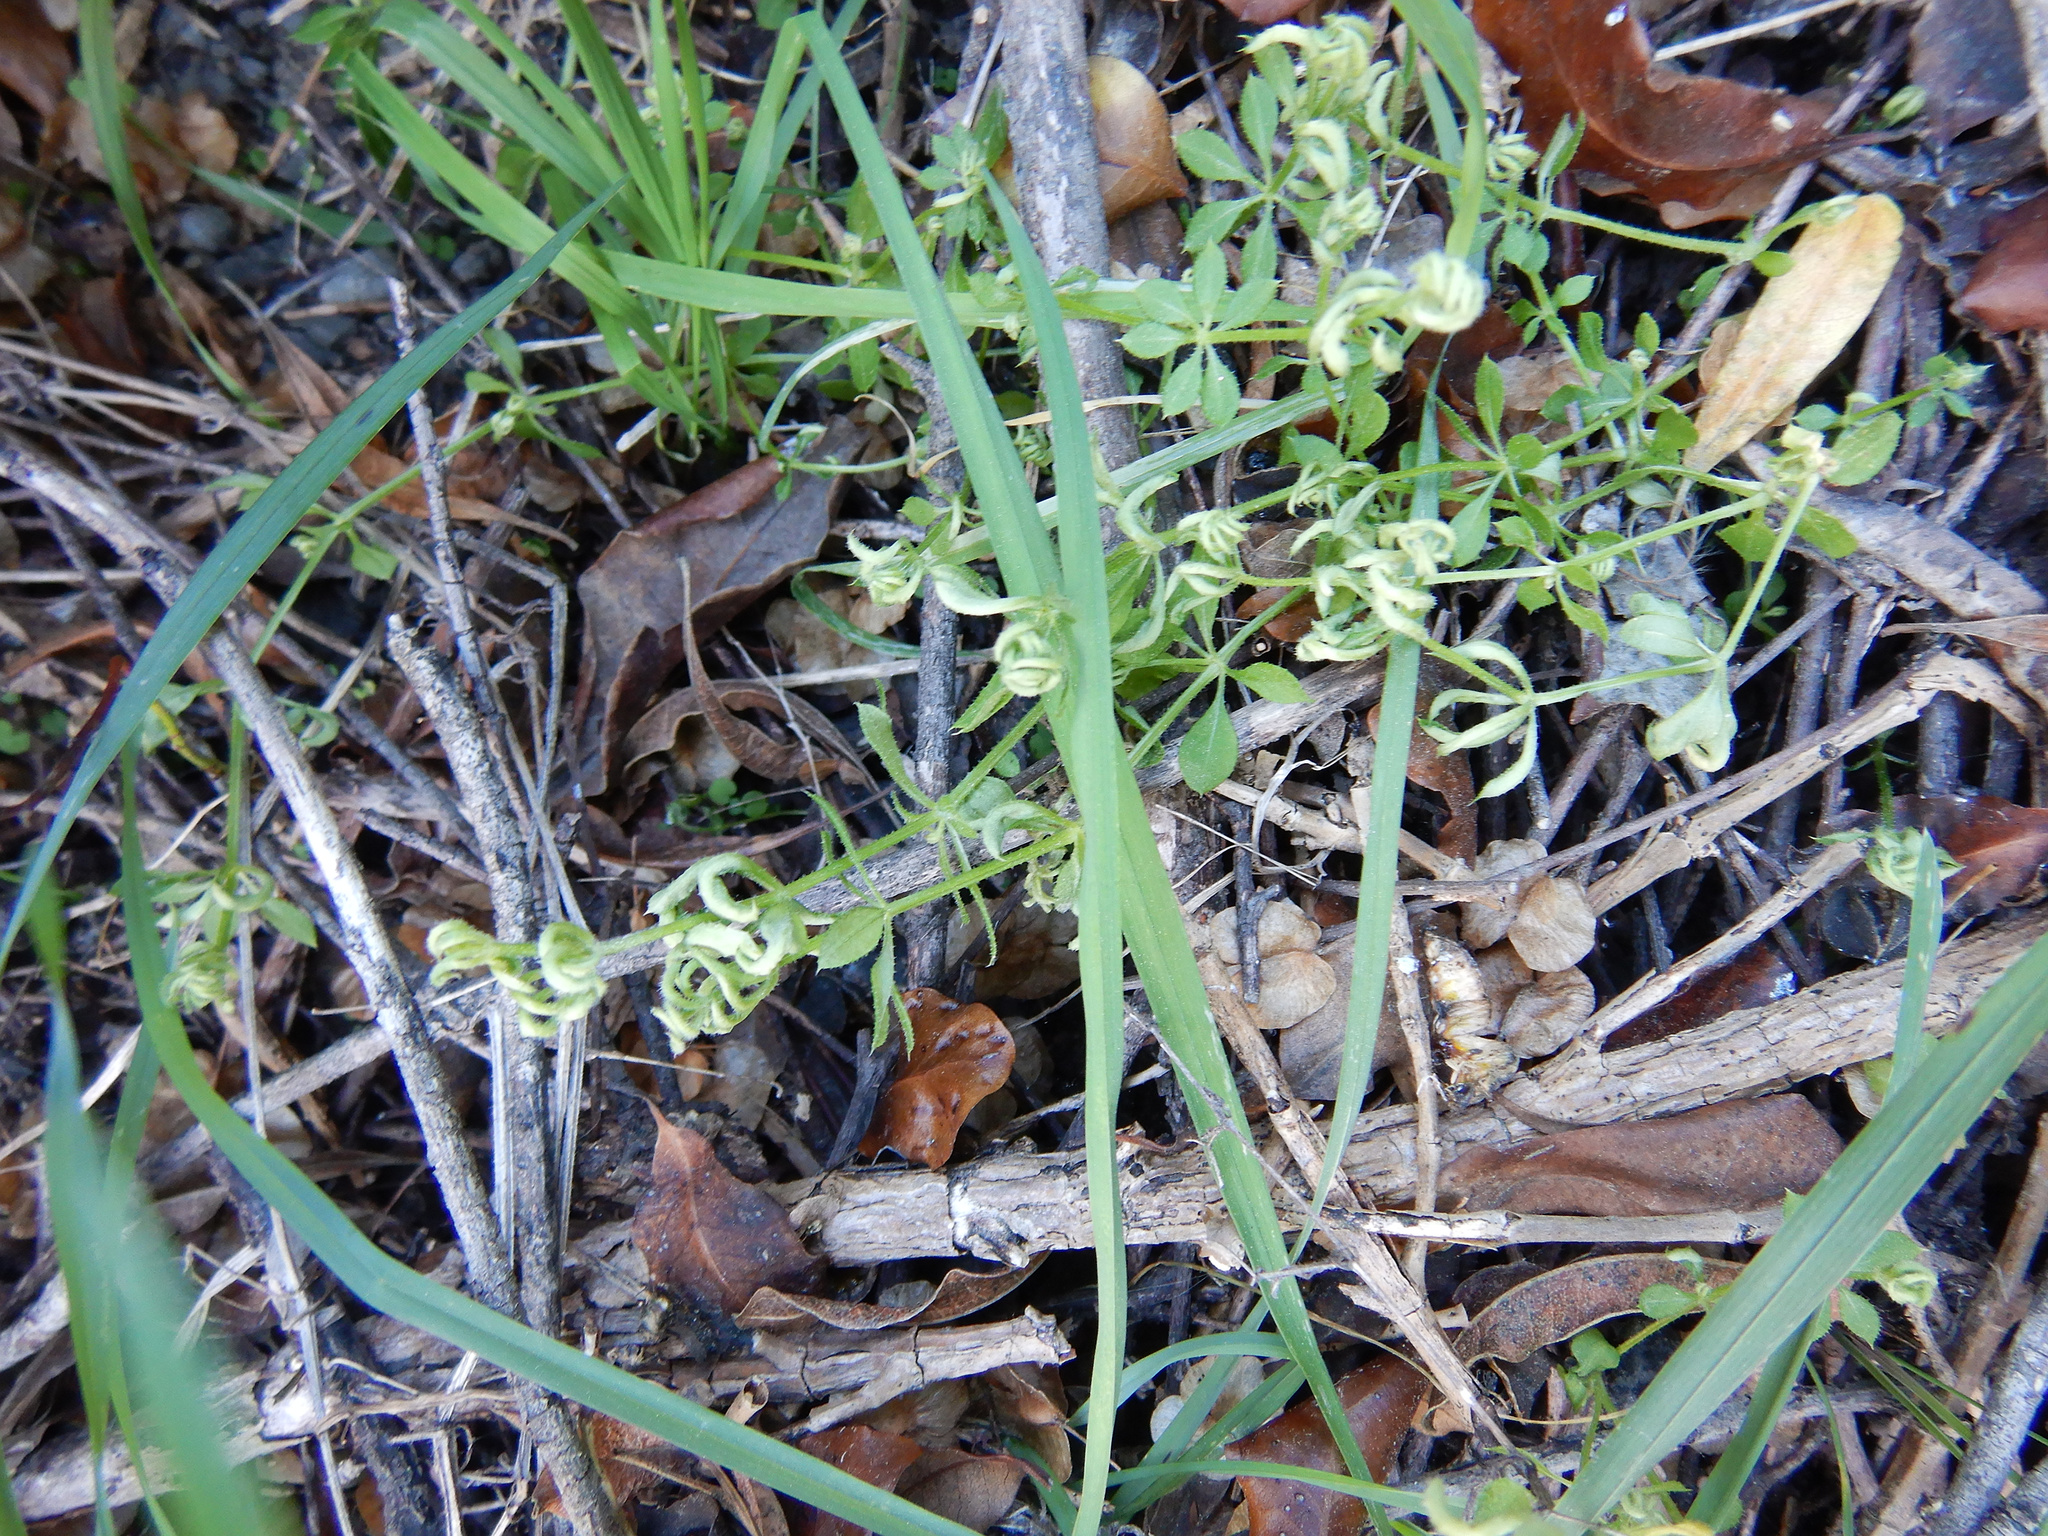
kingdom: Animalia
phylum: Arthropoda
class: Arachnida
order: Trombidiformes
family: Eriophyidae
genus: Cecidophyes
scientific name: Cecidophyes rouhollahi
